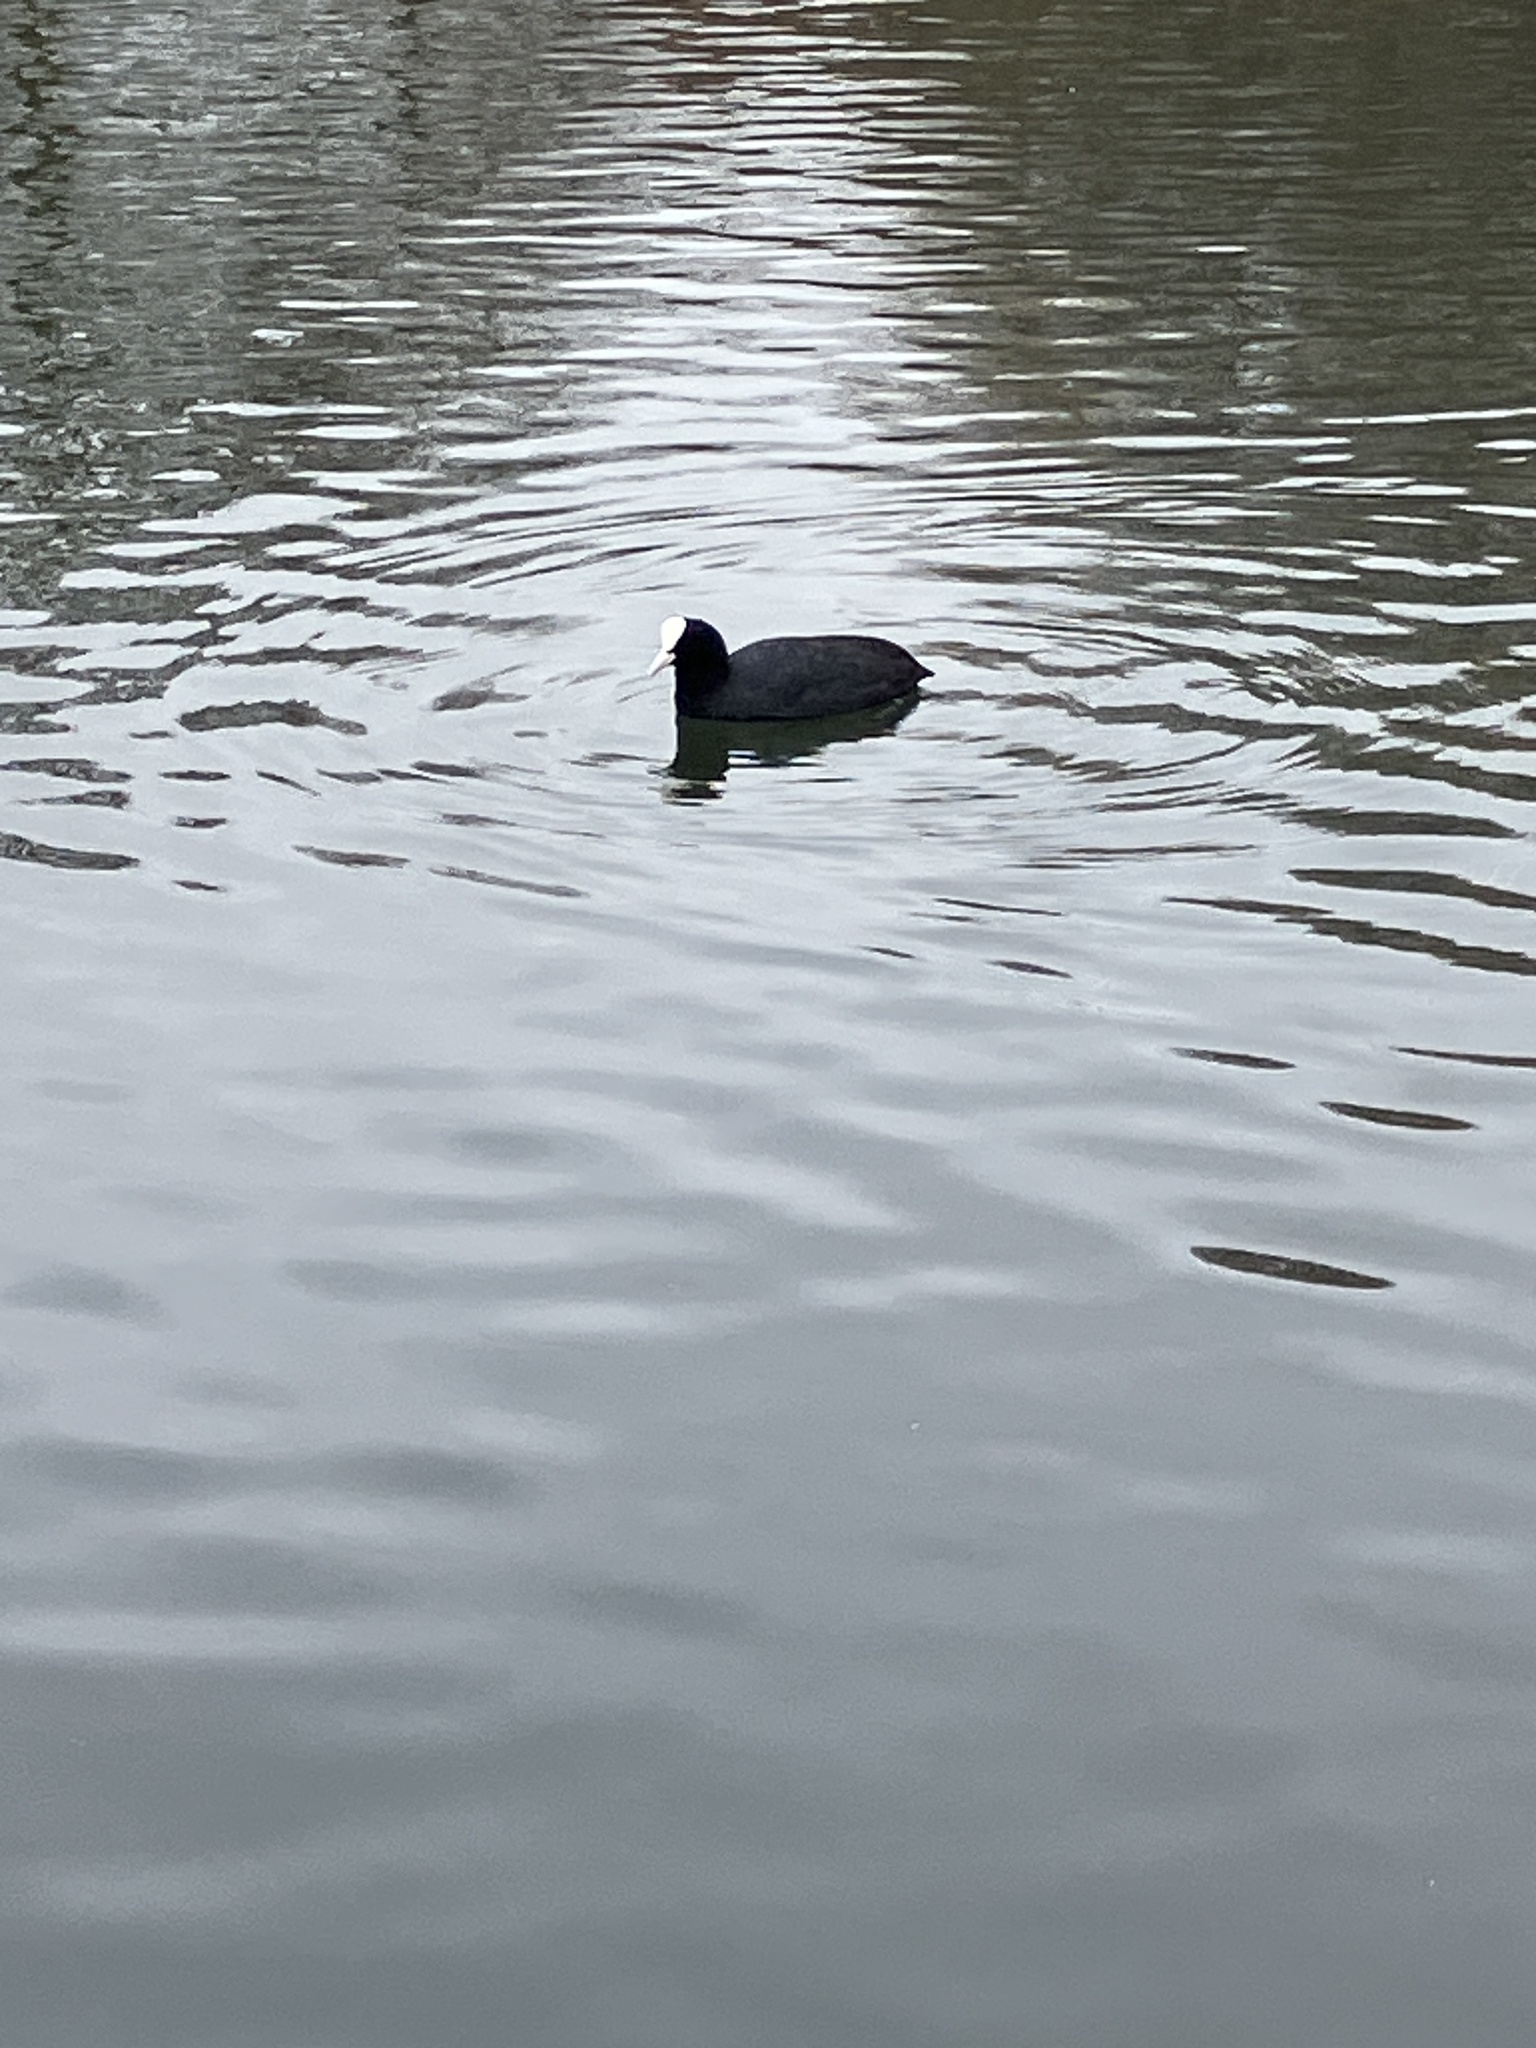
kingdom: Animalia
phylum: Chordata
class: Aves
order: Gruiformes
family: Rallidae
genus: Fulica
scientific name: Fulica atra
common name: Eurasian coot
